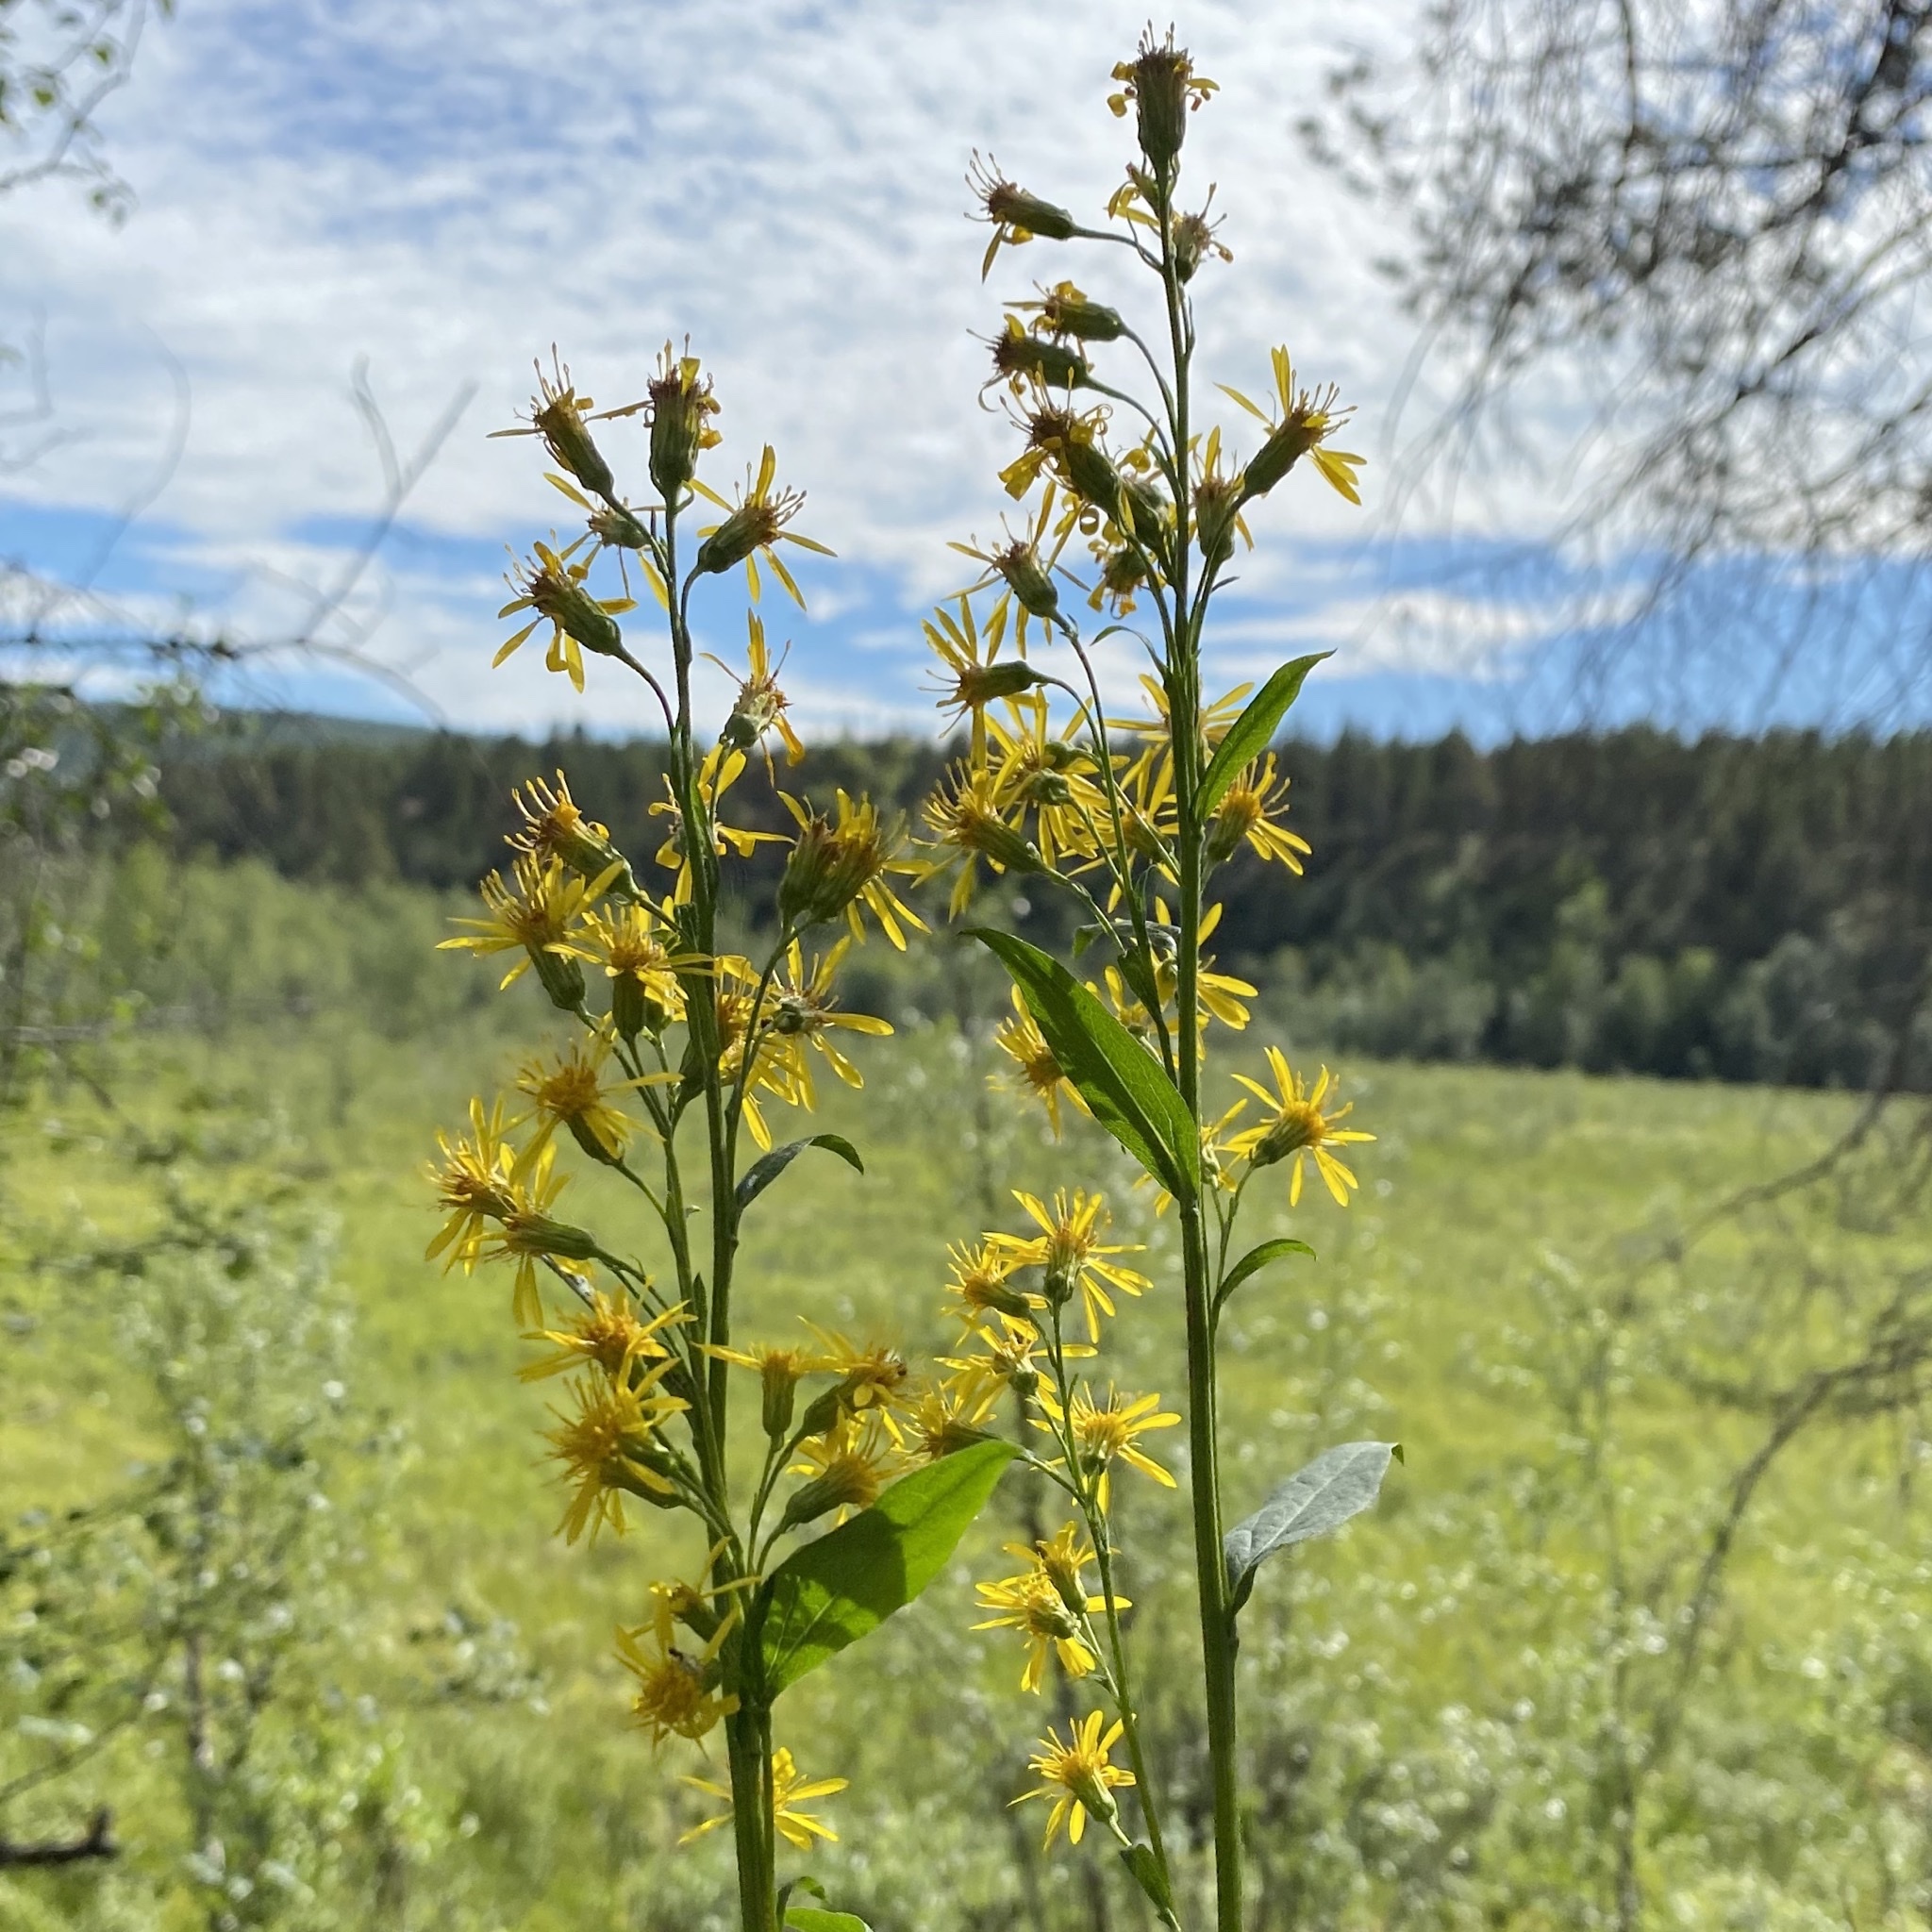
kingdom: Plantae
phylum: Tracheophyta
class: Magnoliopsida
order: Asterales
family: Asteraceae
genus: Solidago
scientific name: Solidago virgaurea
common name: Goldenrod
